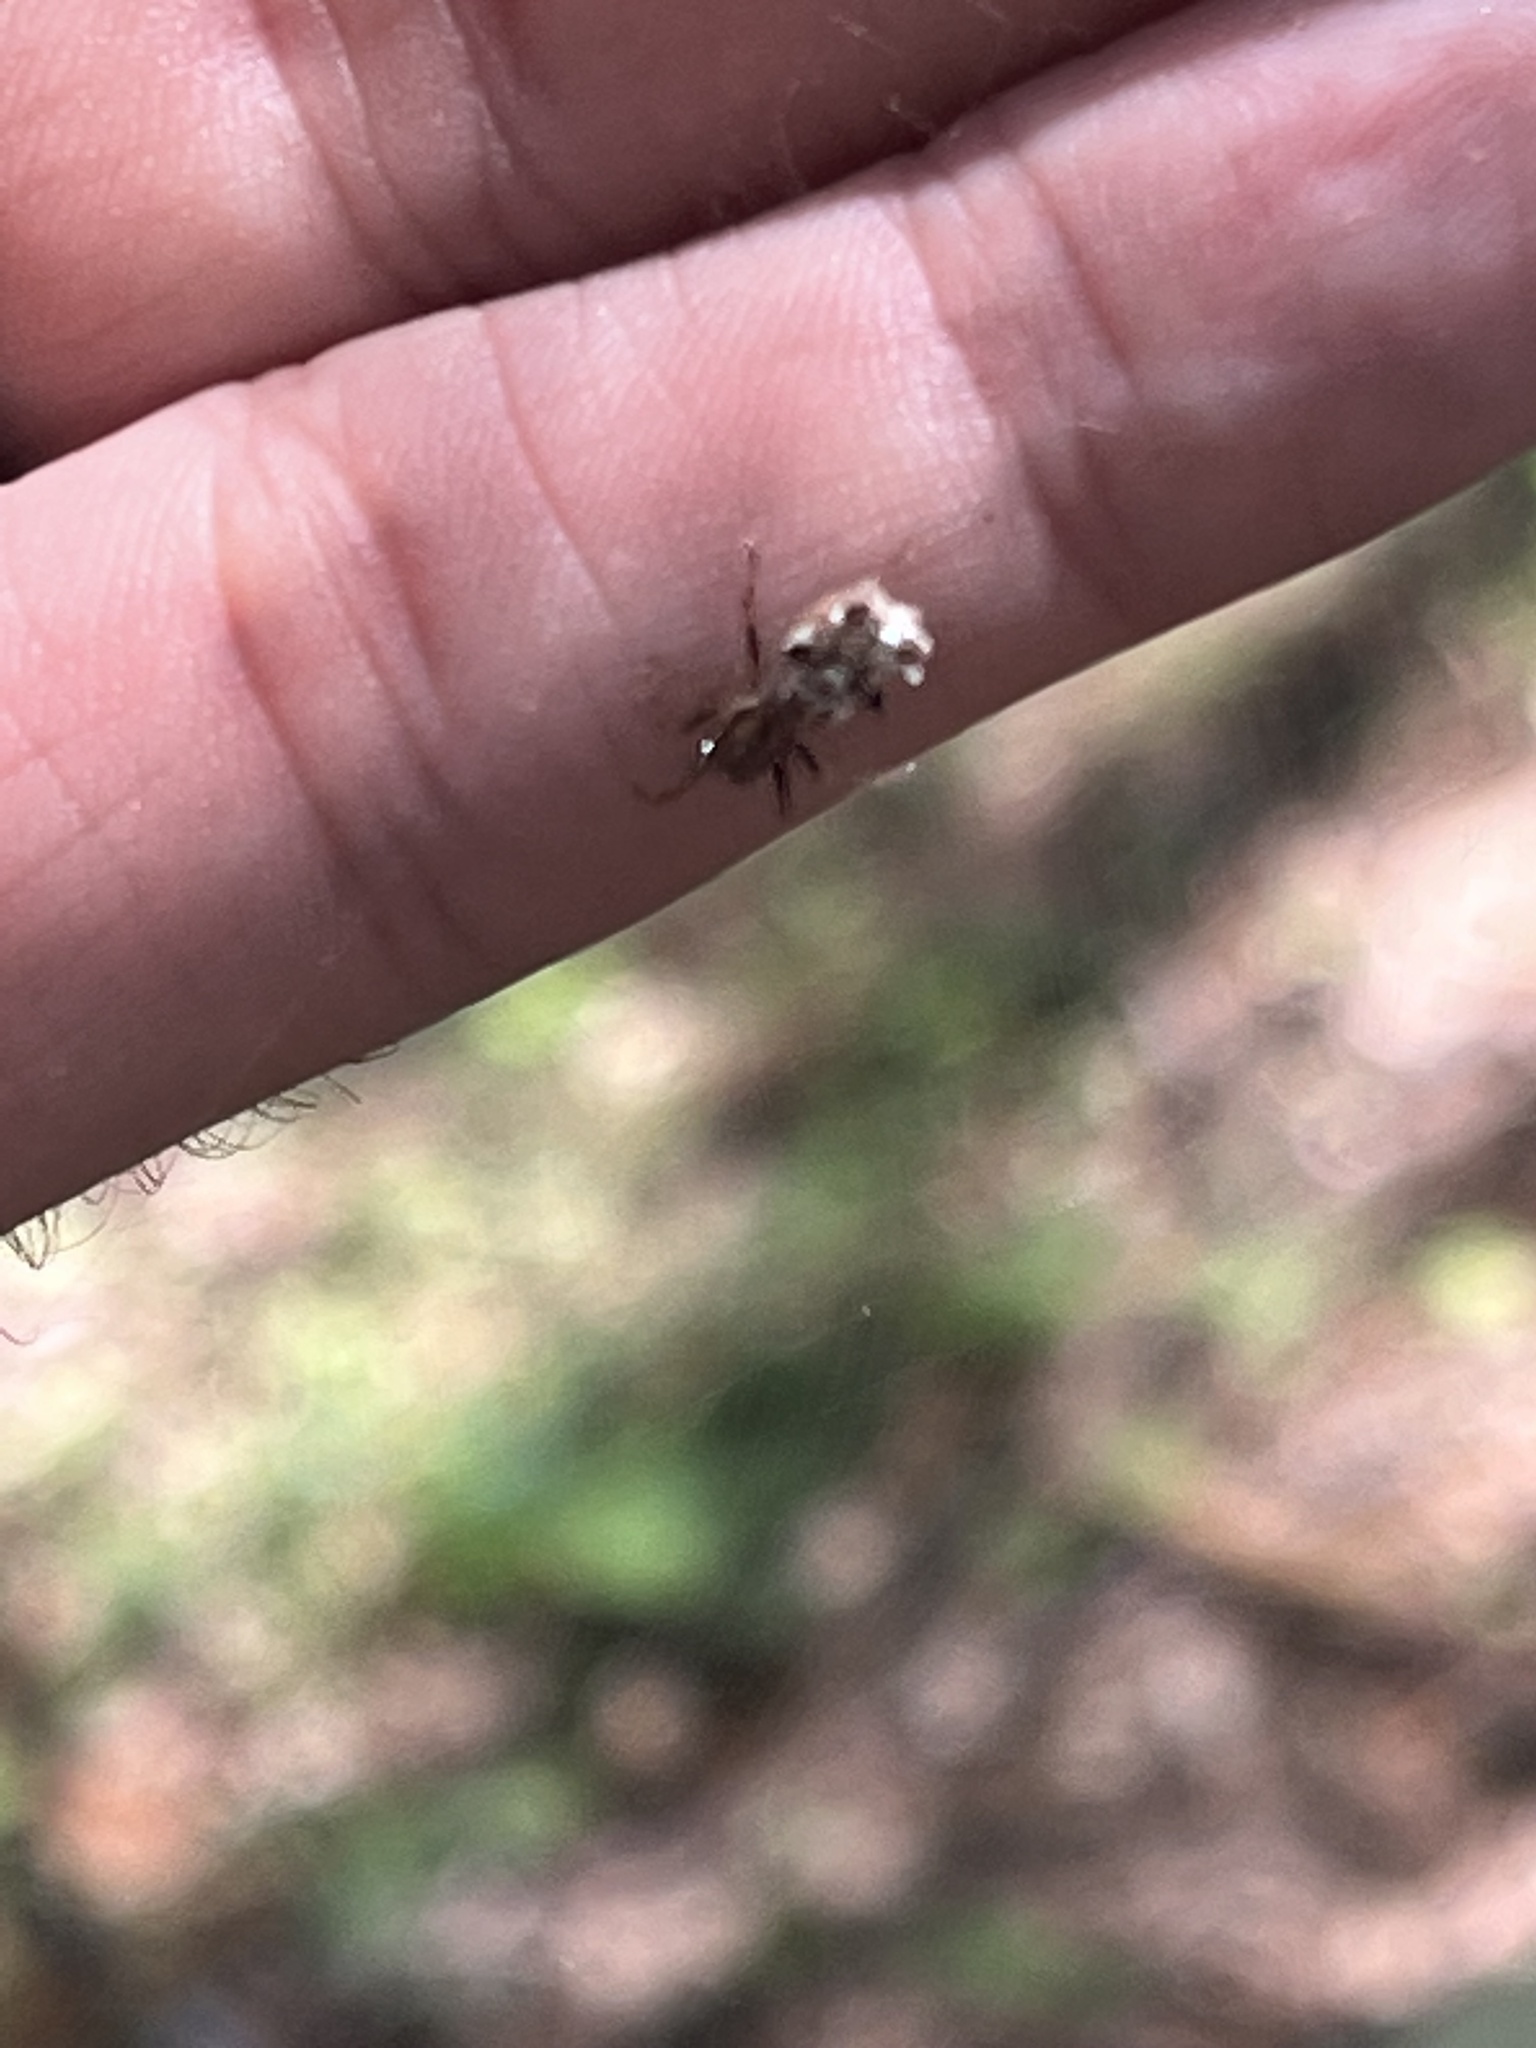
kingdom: Animalia
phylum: Arthropoda
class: Arachnida
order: Araneae
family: Araneidae
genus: Micrathena
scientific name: Micrathena gracilis
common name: Orb weavers
